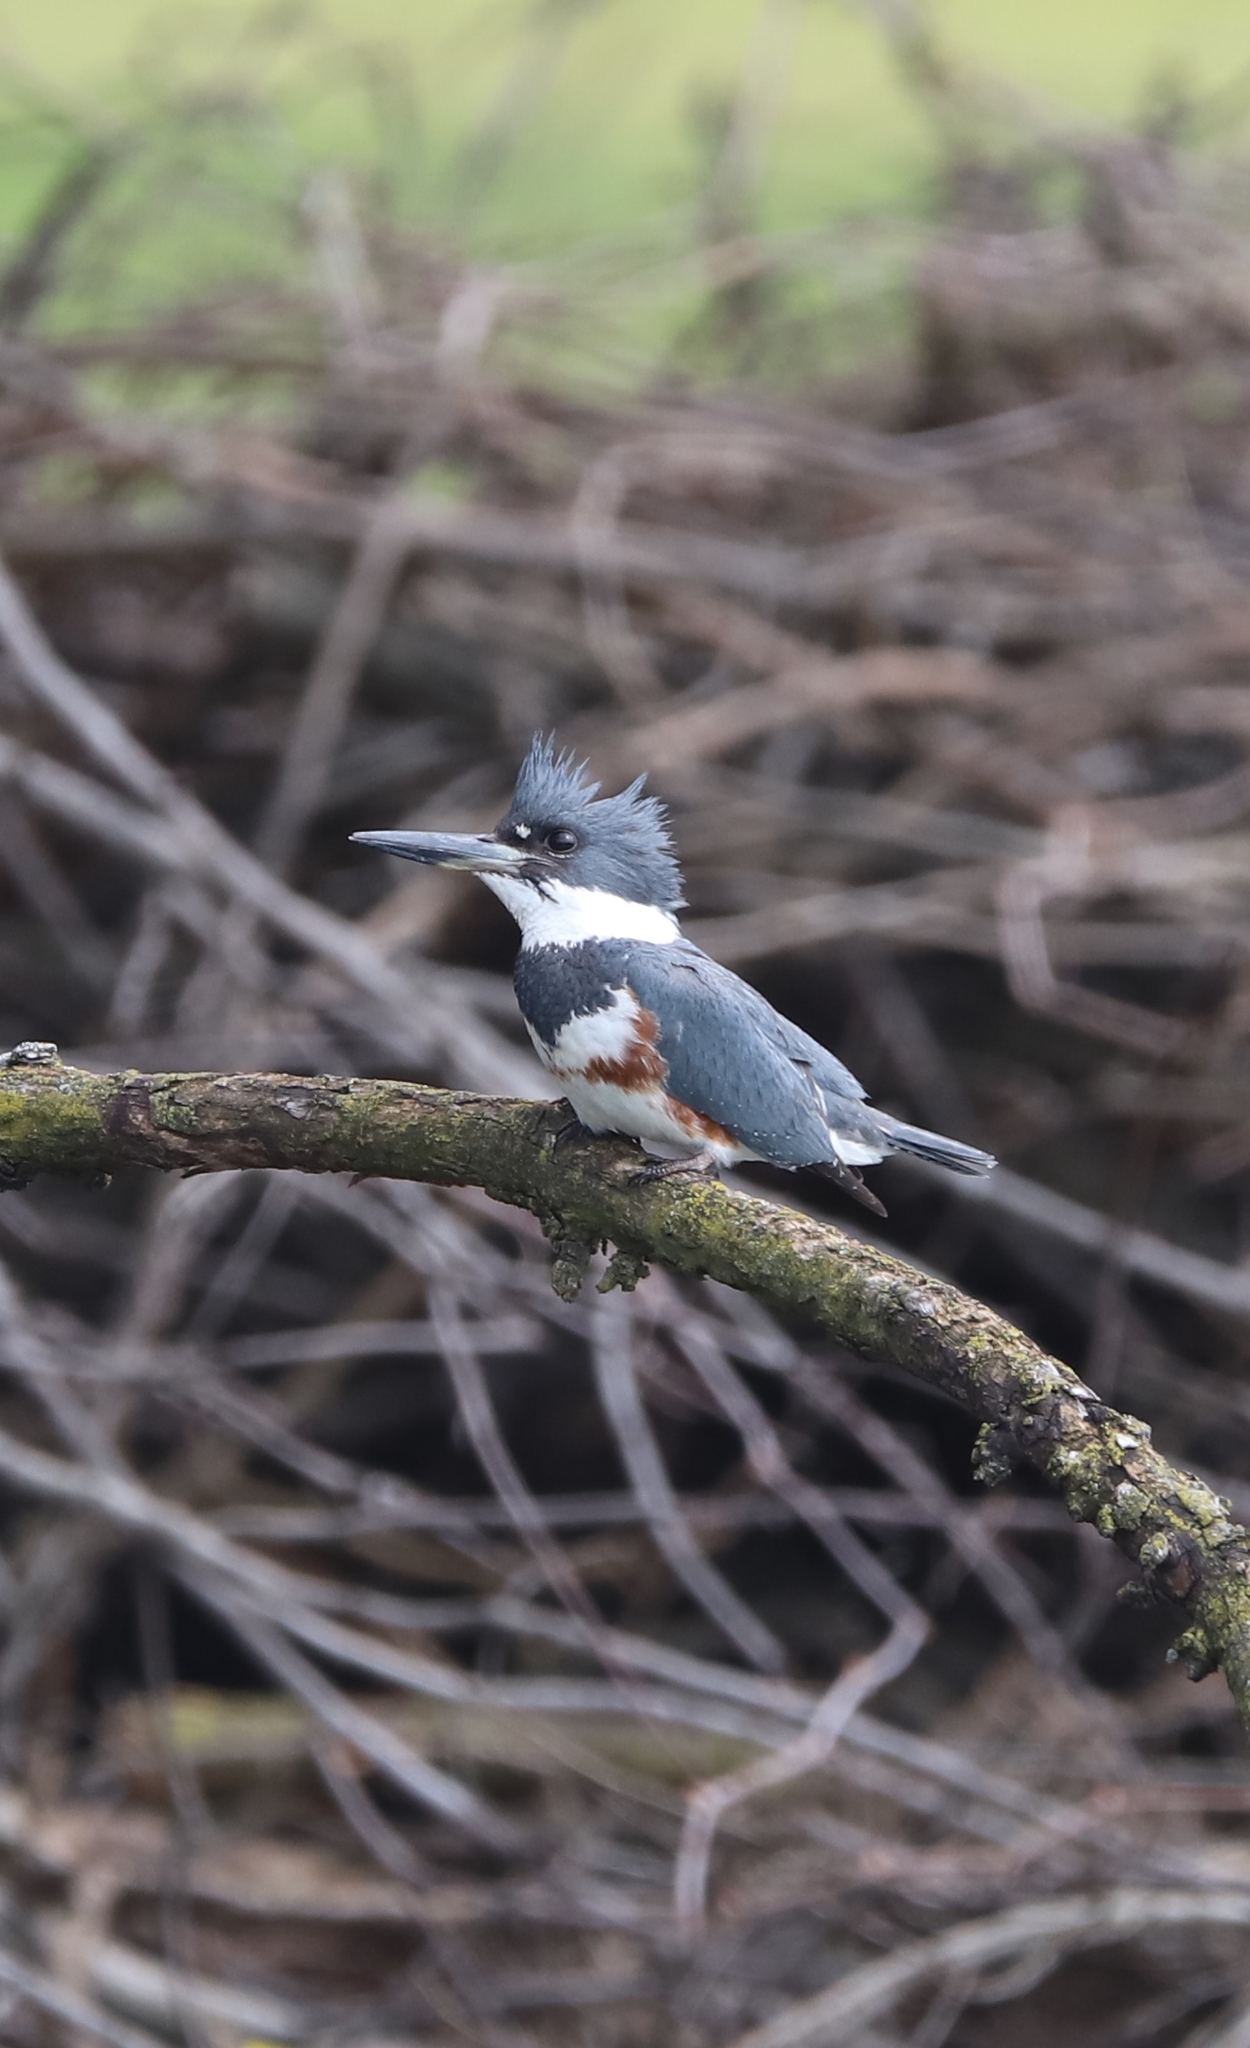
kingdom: Animalia
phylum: Chordata
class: Aves
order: Coraciiformes
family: Alcedinidae
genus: Megaceryle
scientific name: Megaceryle alcyon
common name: Belted kingfisher
